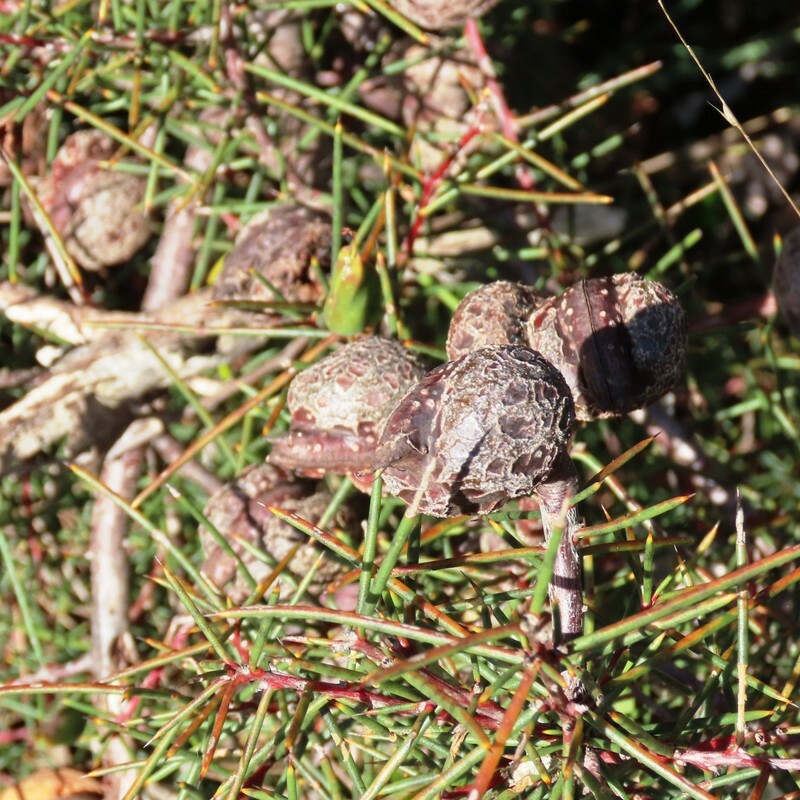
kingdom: Plantae
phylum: Tracheophyta
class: Magnoliopsida
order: Proteales
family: Proteaceae
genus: Hakea
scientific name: Hakea decurrens
